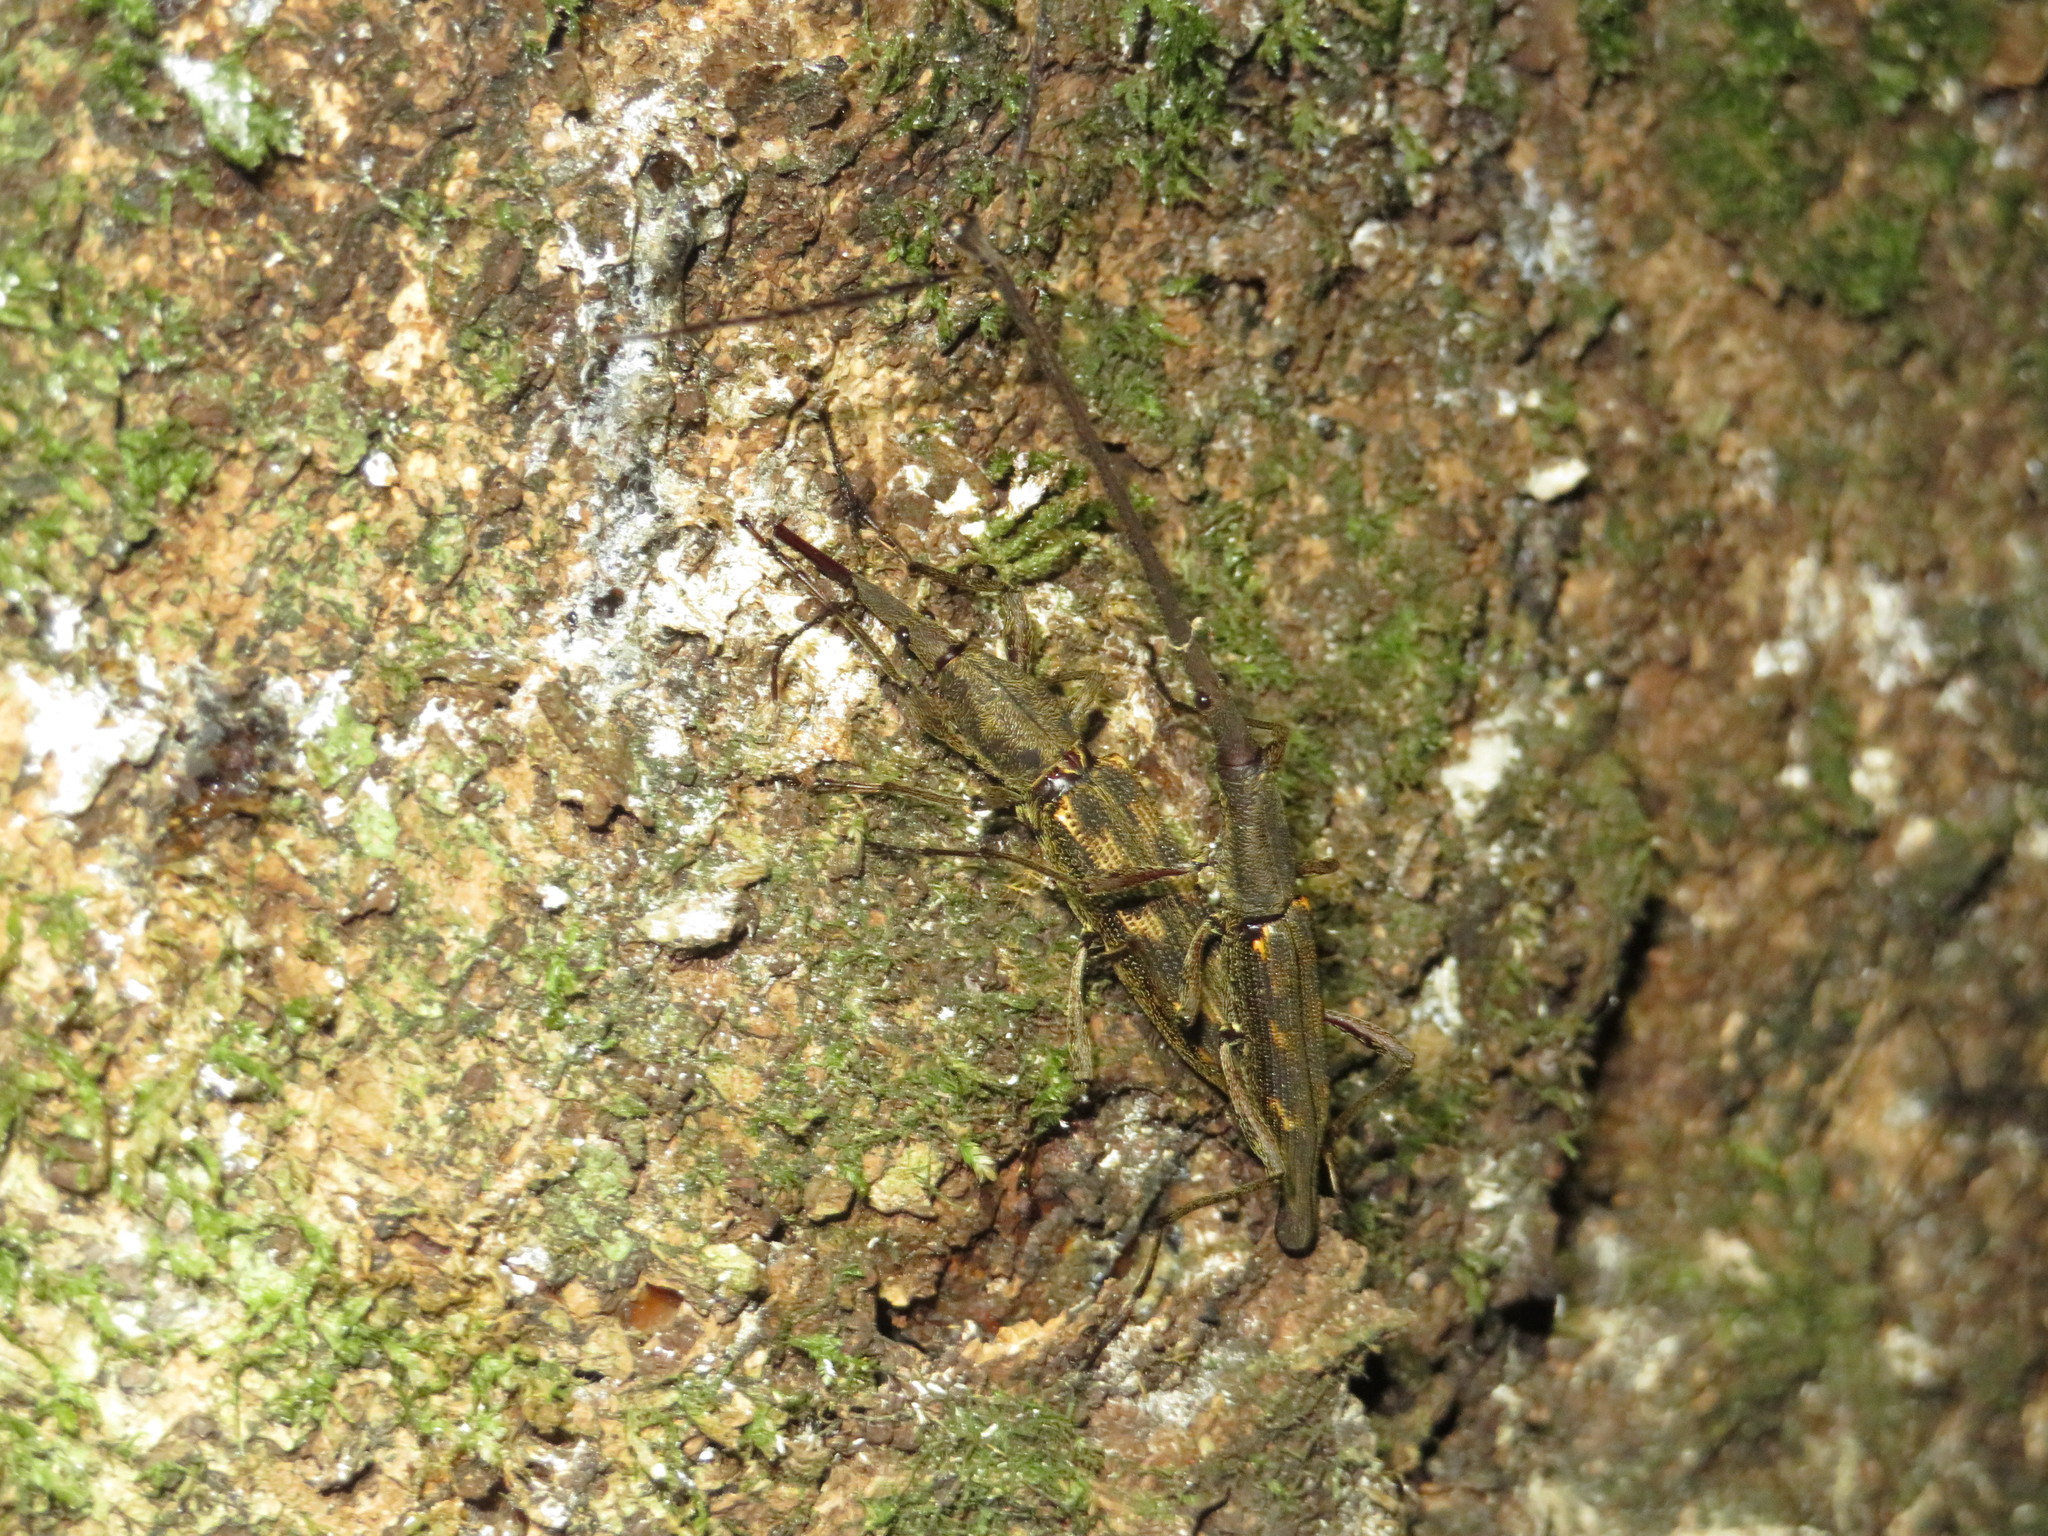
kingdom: Animalia
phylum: Arthropoda
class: Insecta
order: Coleoptera
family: Brentidae
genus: Lasiorhynchus
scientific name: Lasiorhynchus barbicornis
